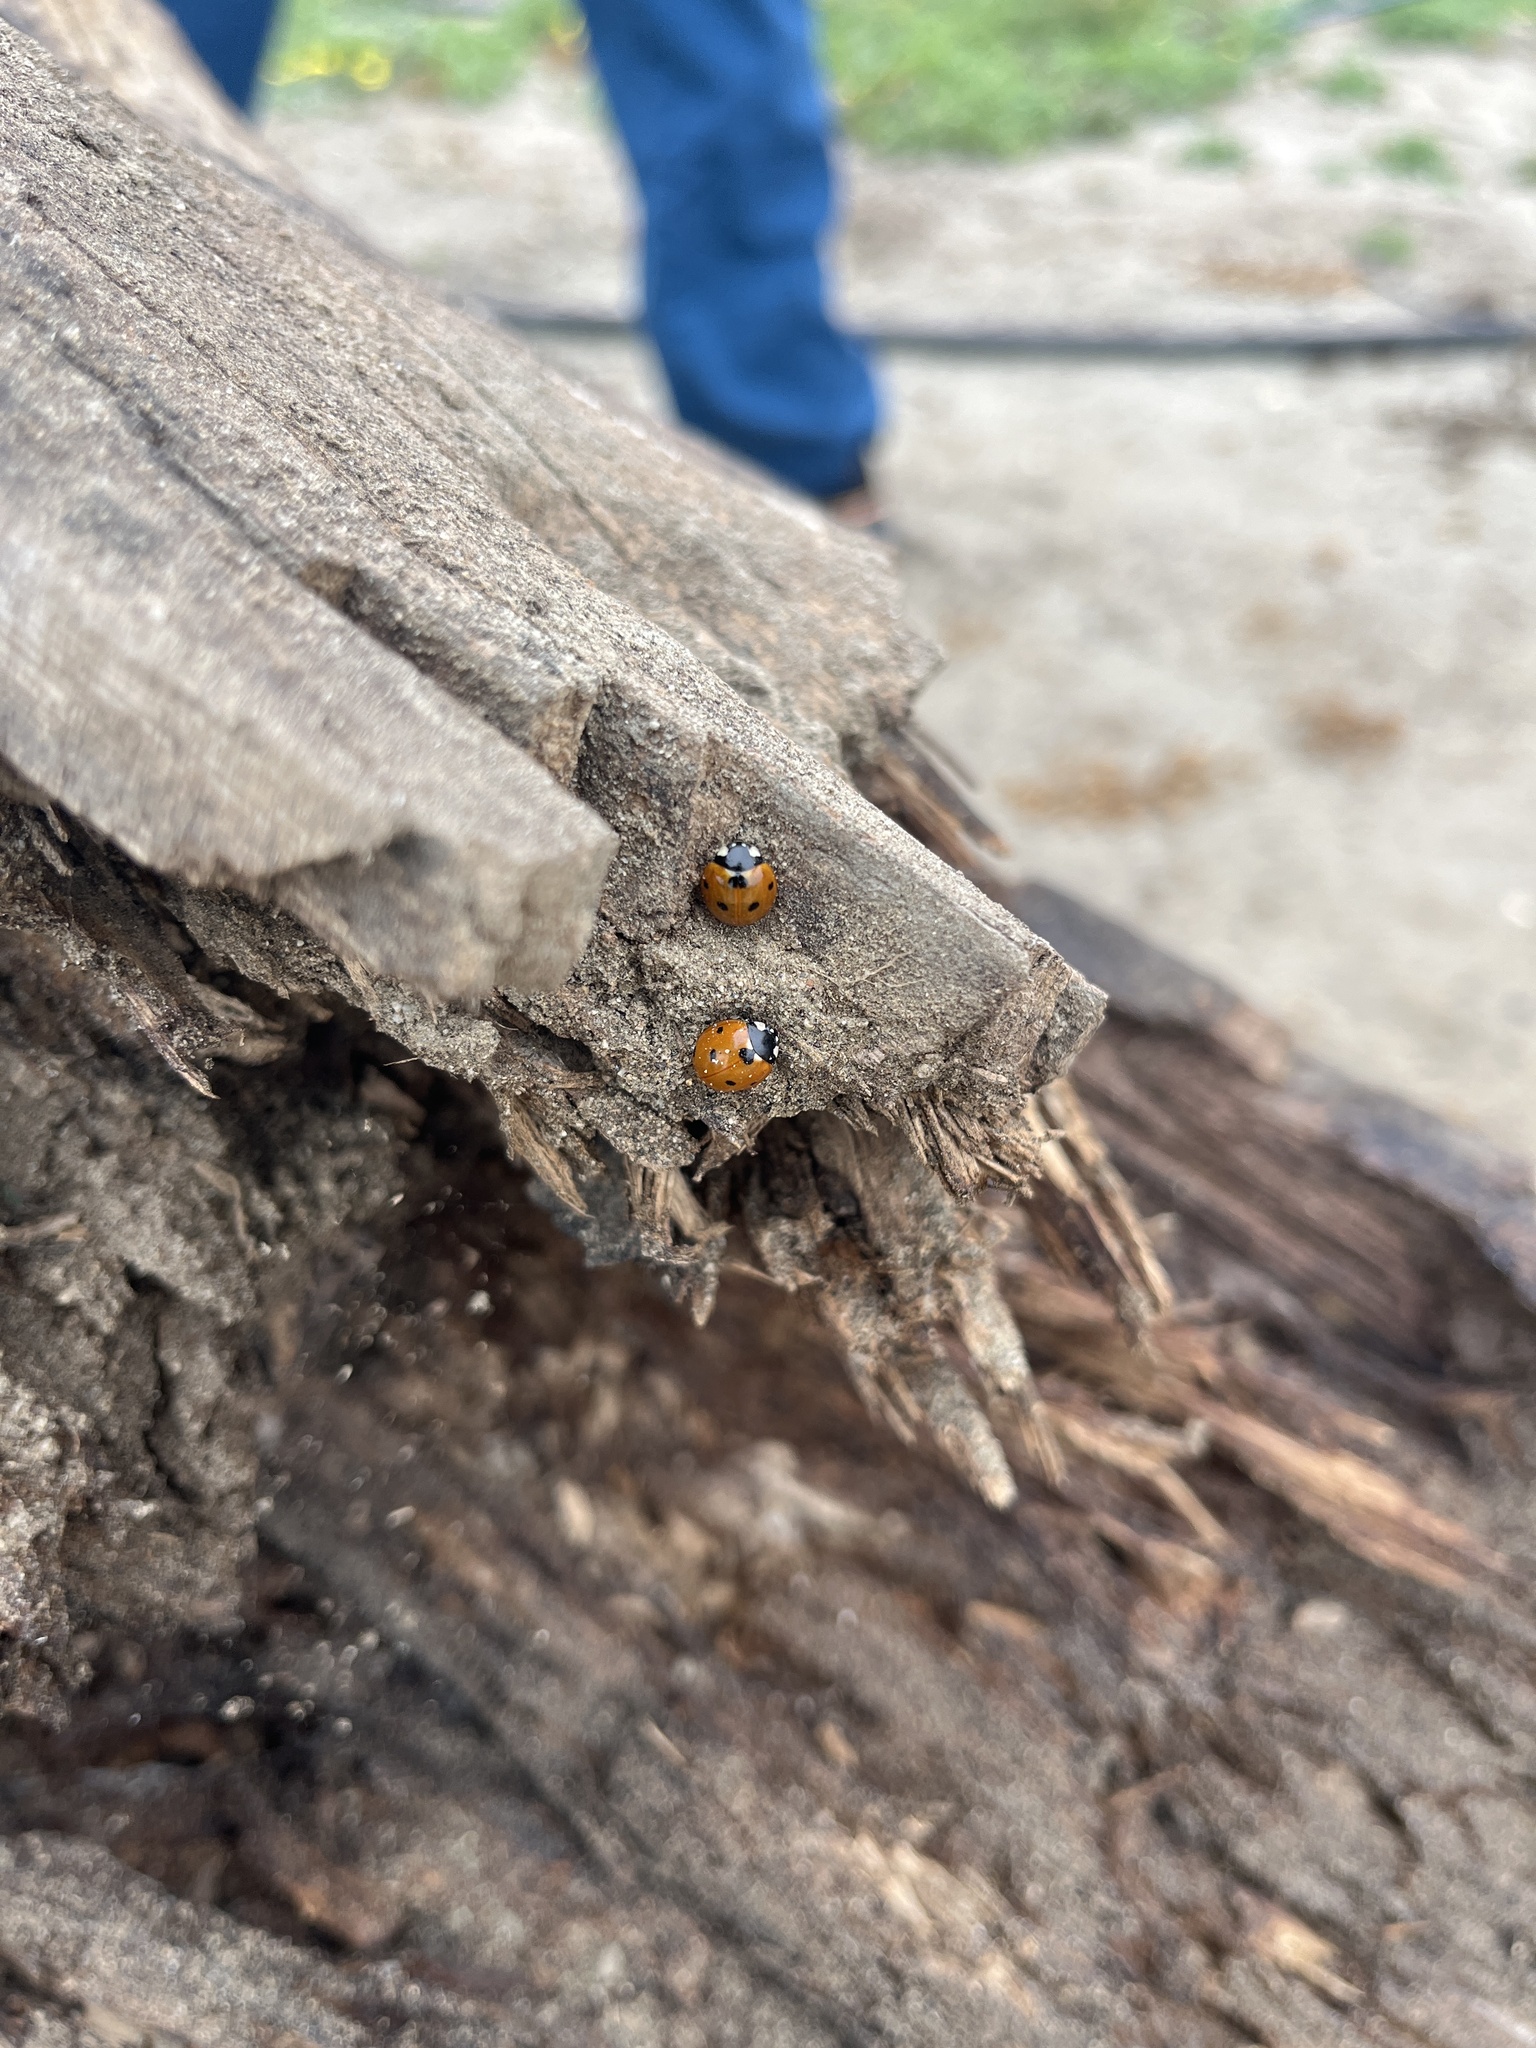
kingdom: Animalia
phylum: Arthropoda
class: Insecta
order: Coleoptera
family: Coccinellidae
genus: Coccinella
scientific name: Coccinella septempunctata
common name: Sevenspotted lady beetle
